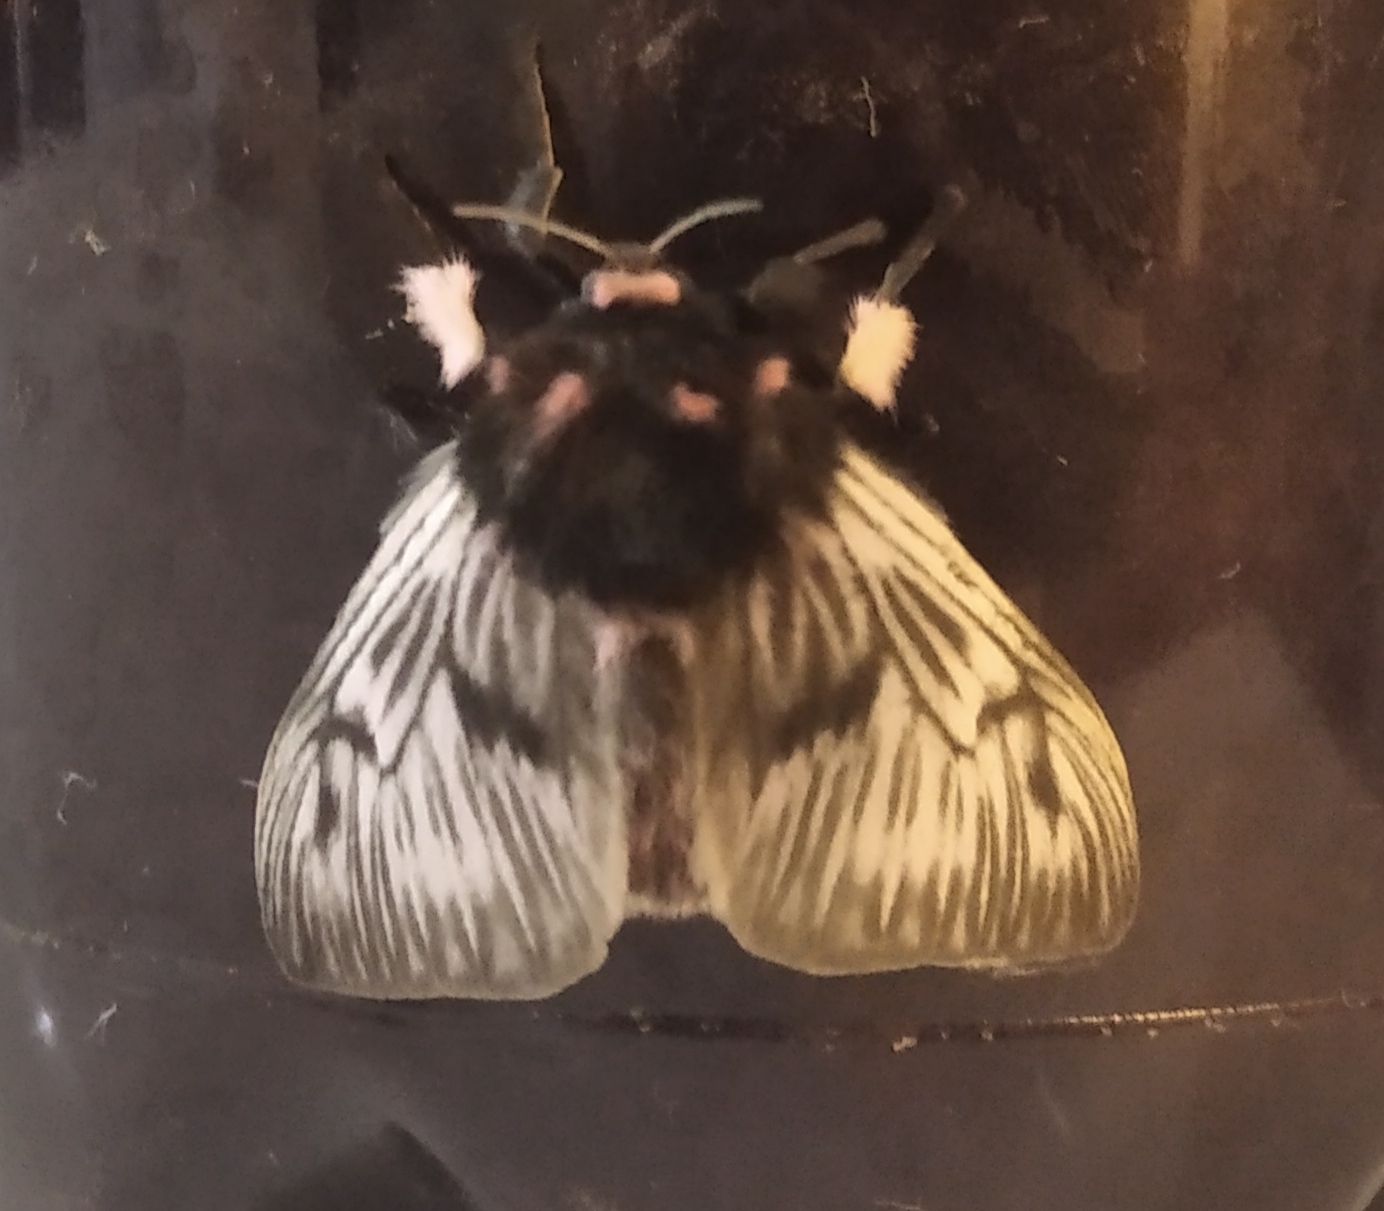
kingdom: Animalia
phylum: Arthropoda
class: Insecta
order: Lepidoptera
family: Megalopygidae
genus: Megalopyge
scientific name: Megalopyge lanata
